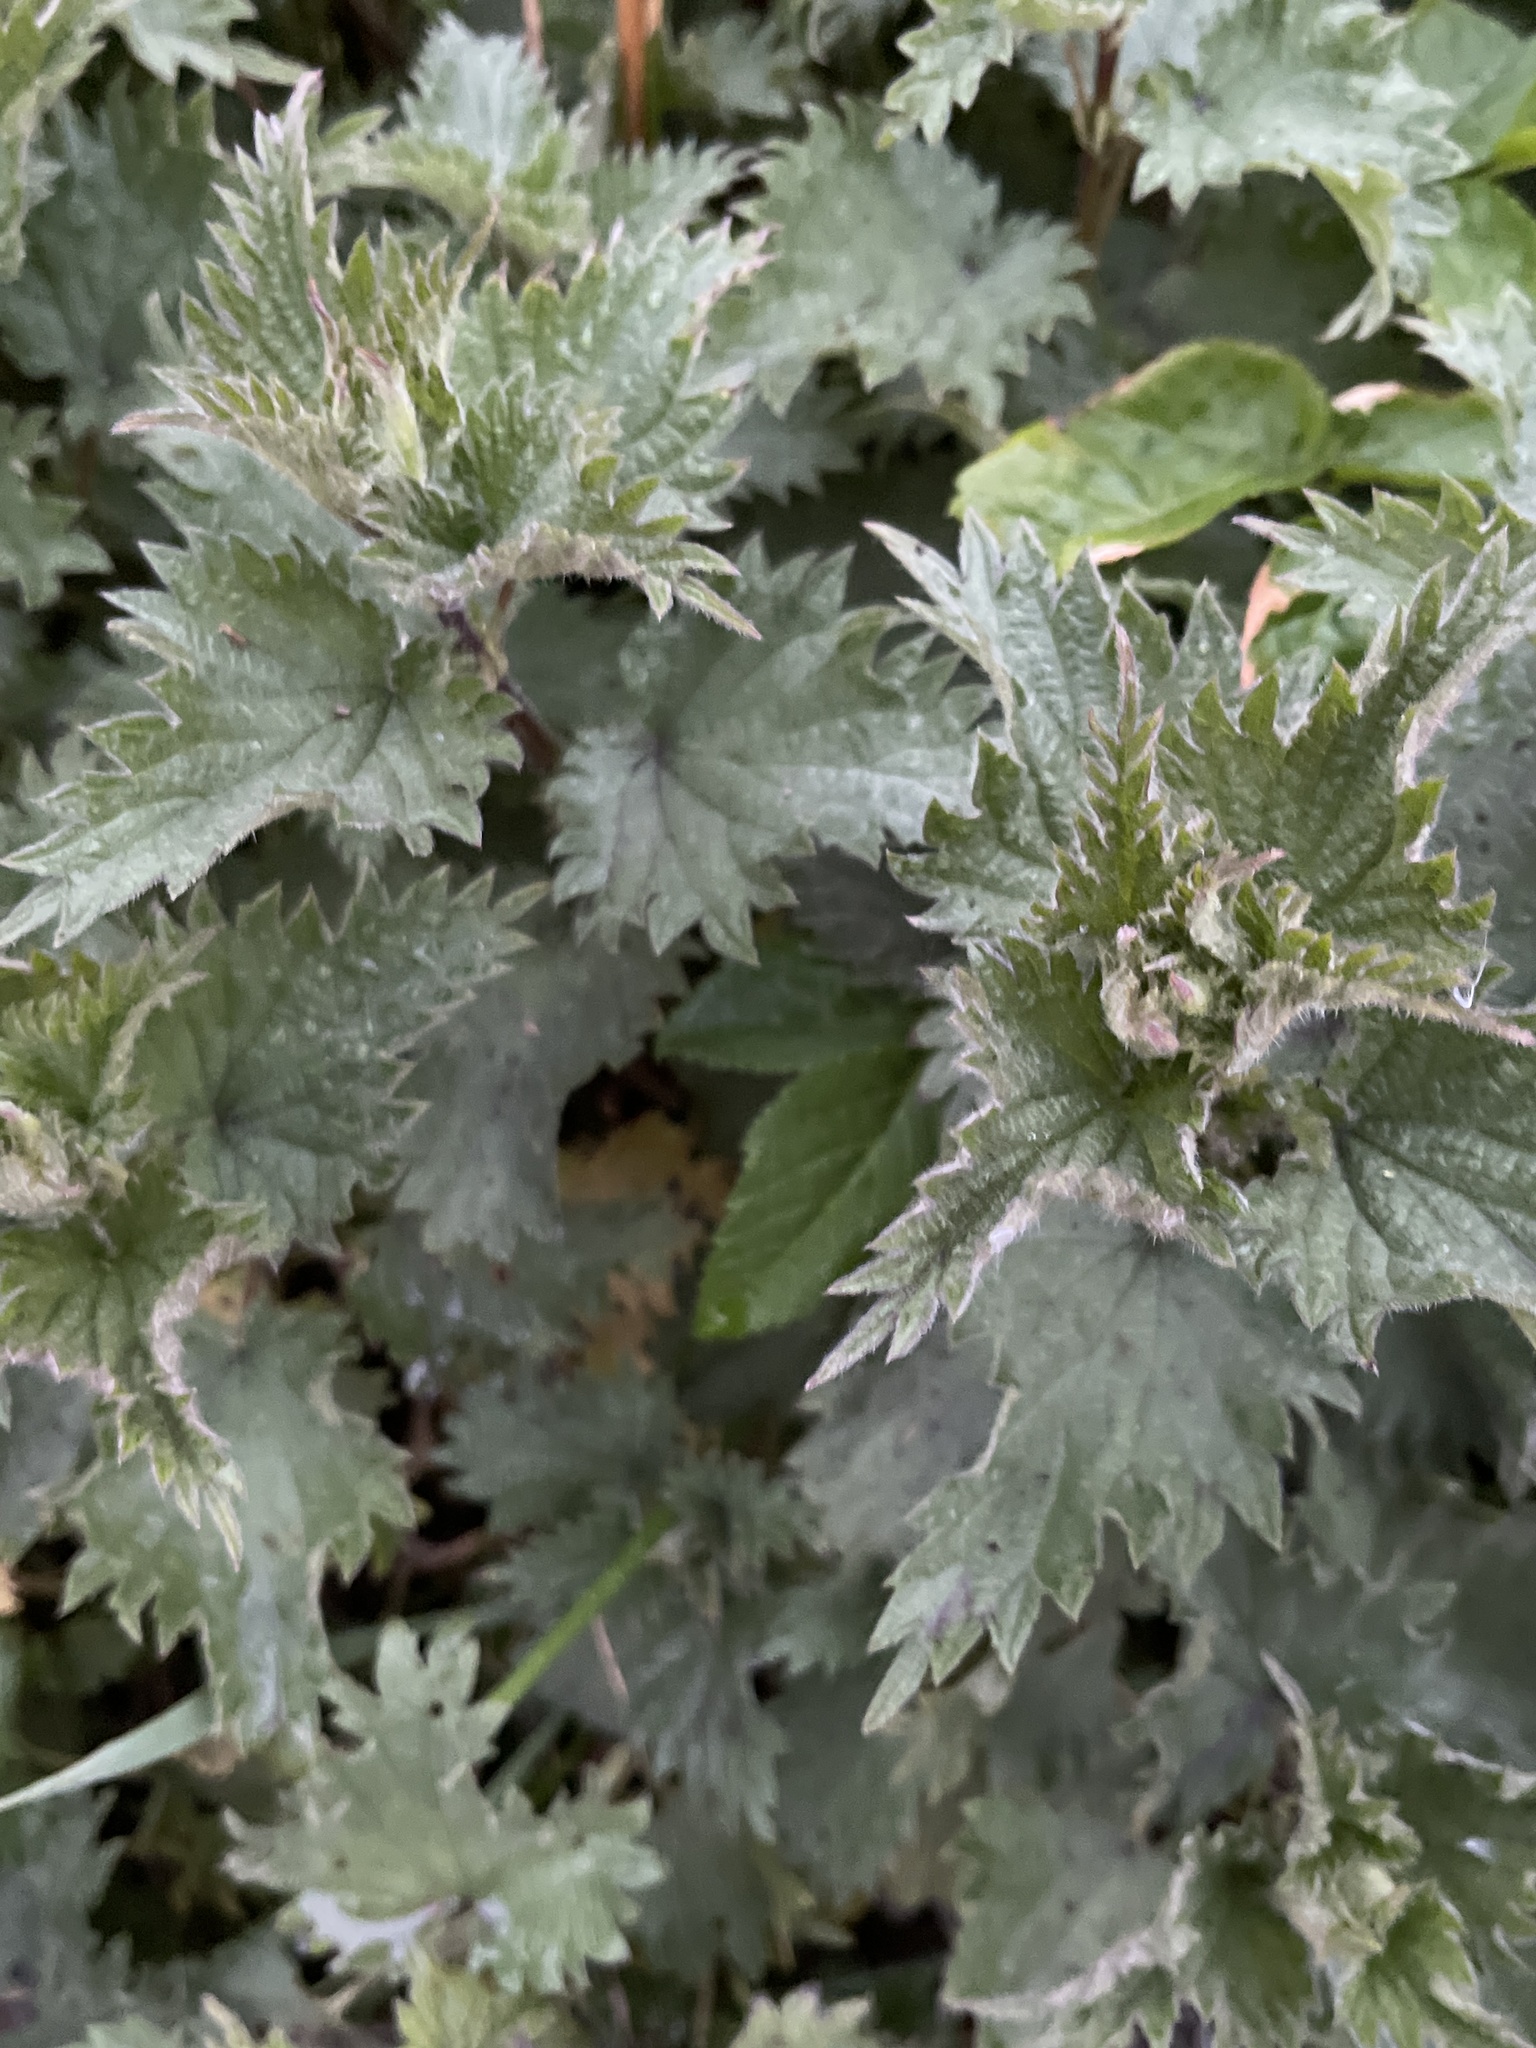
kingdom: Plantae
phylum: Tracheophyta
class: Magnoliopsida
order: Rosales
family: Urticaceae
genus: Urtica
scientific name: Urtica dioica
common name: Common nettle
